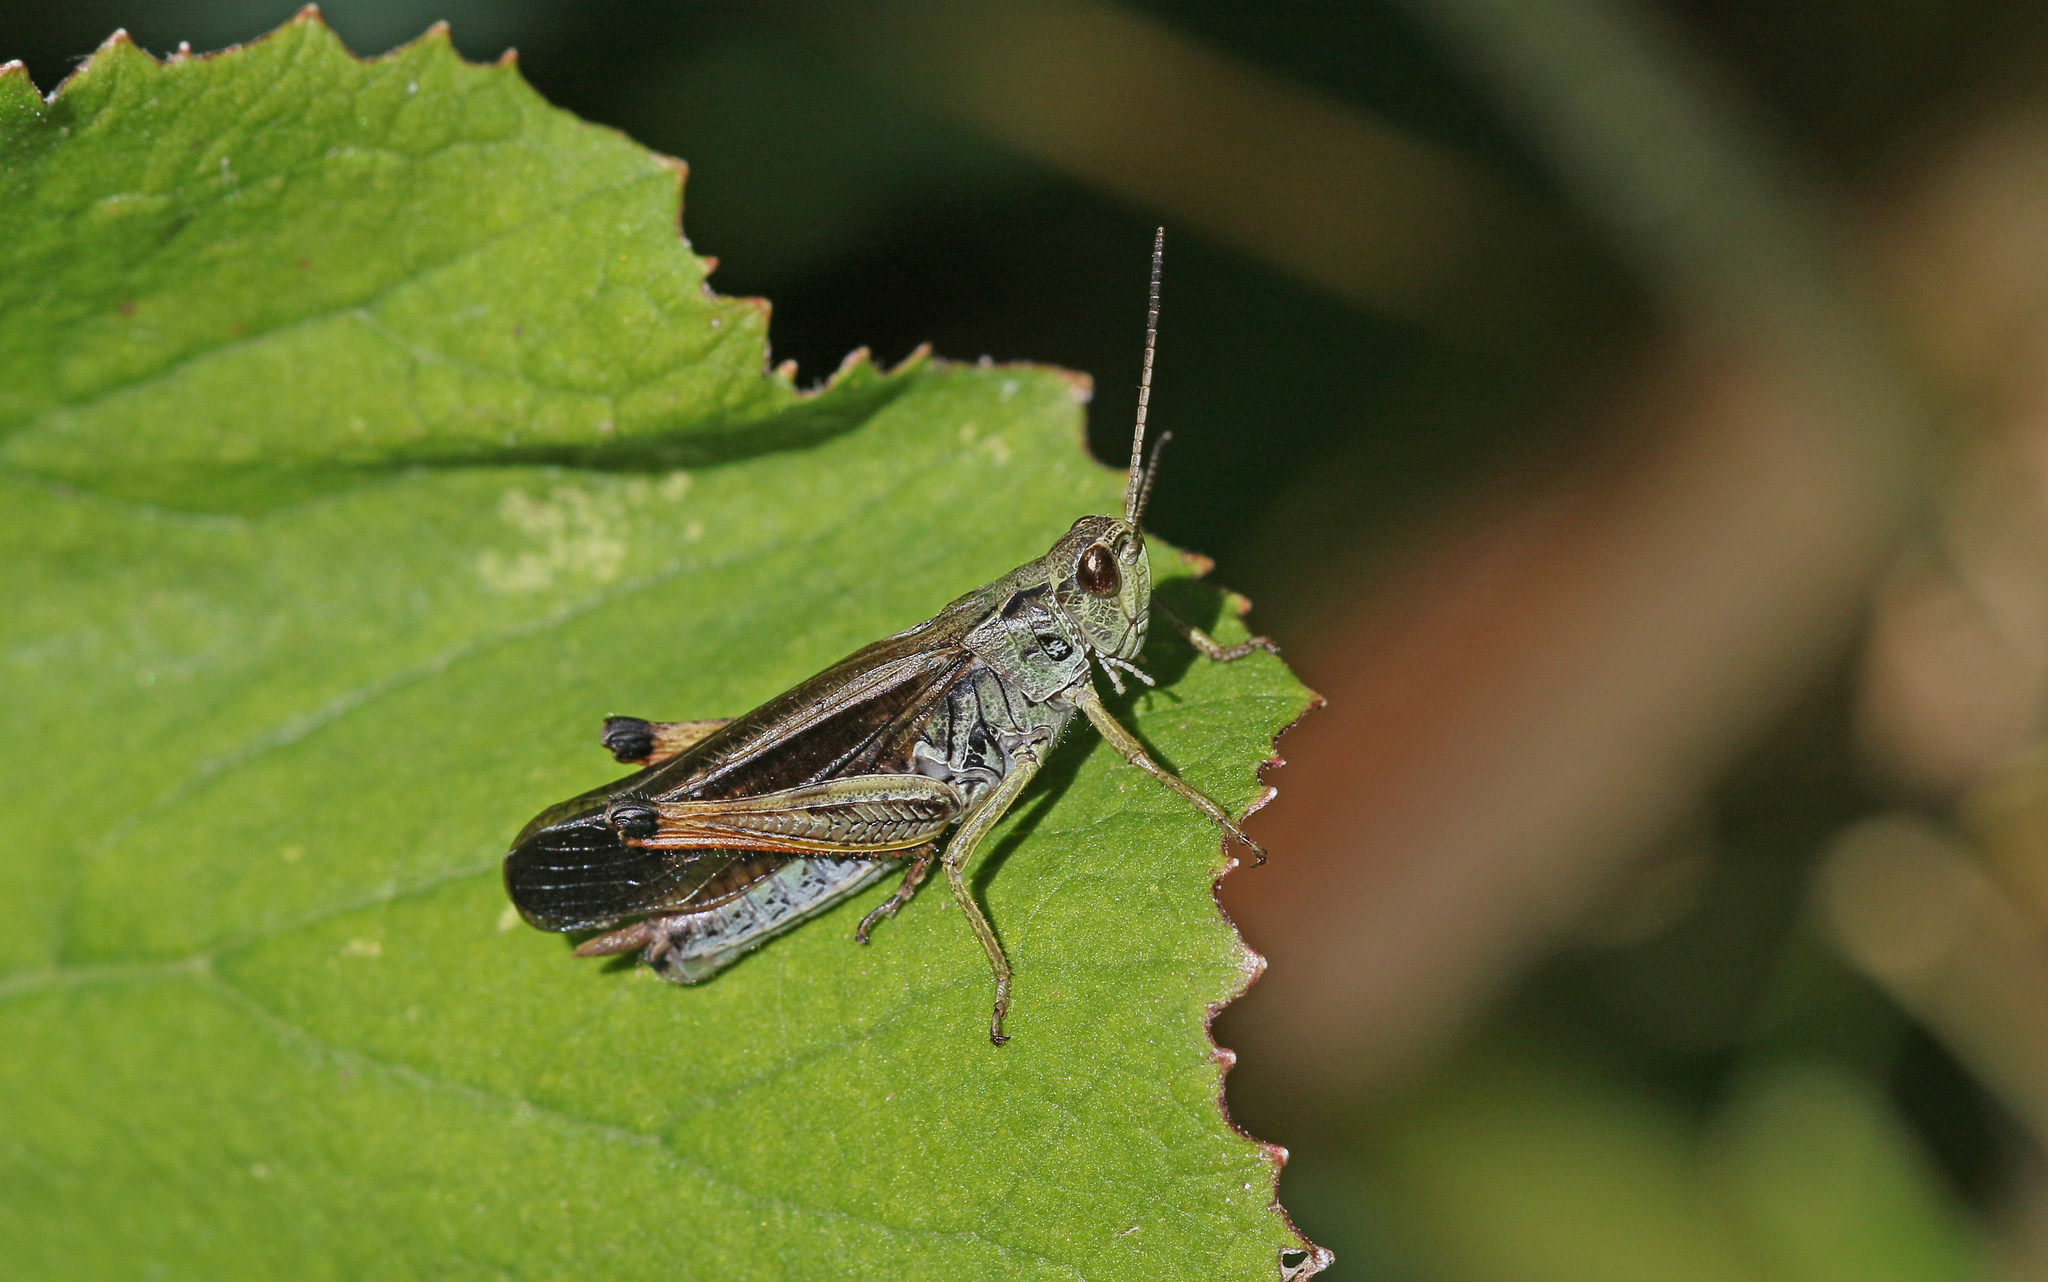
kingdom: Animalia
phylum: Arthropoda
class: Insecta
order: Orthoptera
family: Acrididae
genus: Stauroderus
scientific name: Stauroderus scalaris
